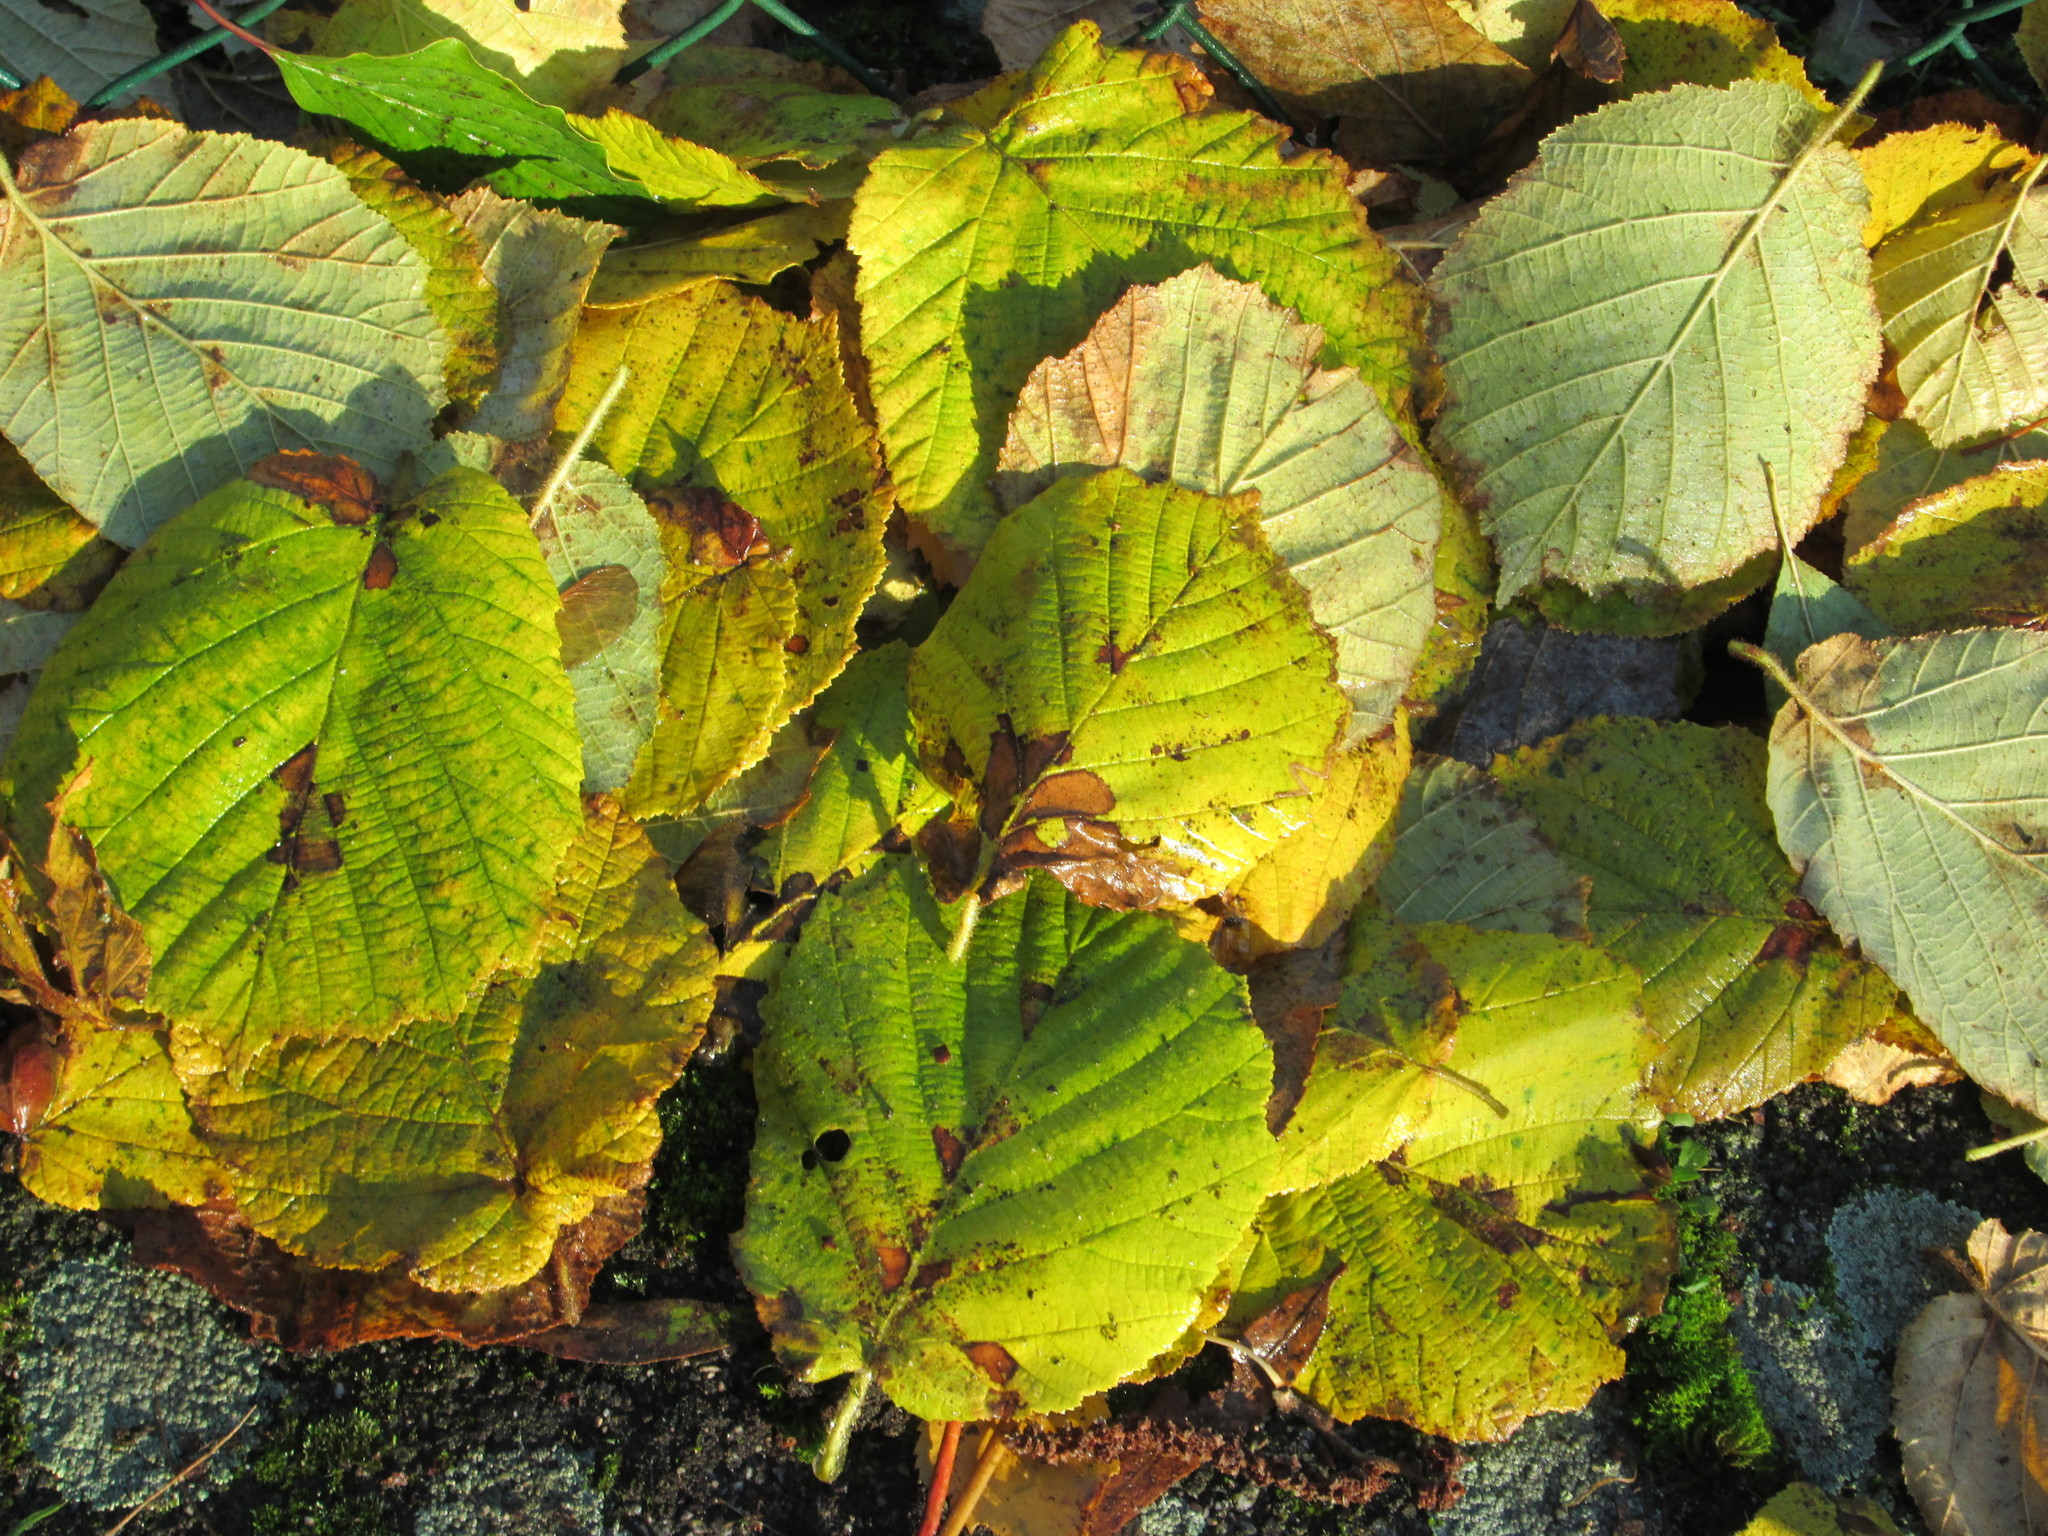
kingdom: Plantae
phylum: Tracheophyta
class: Magnoliopsida
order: Fagales
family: Betulaceae
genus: Corylus
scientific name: Corylus avellana
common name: European hazel
